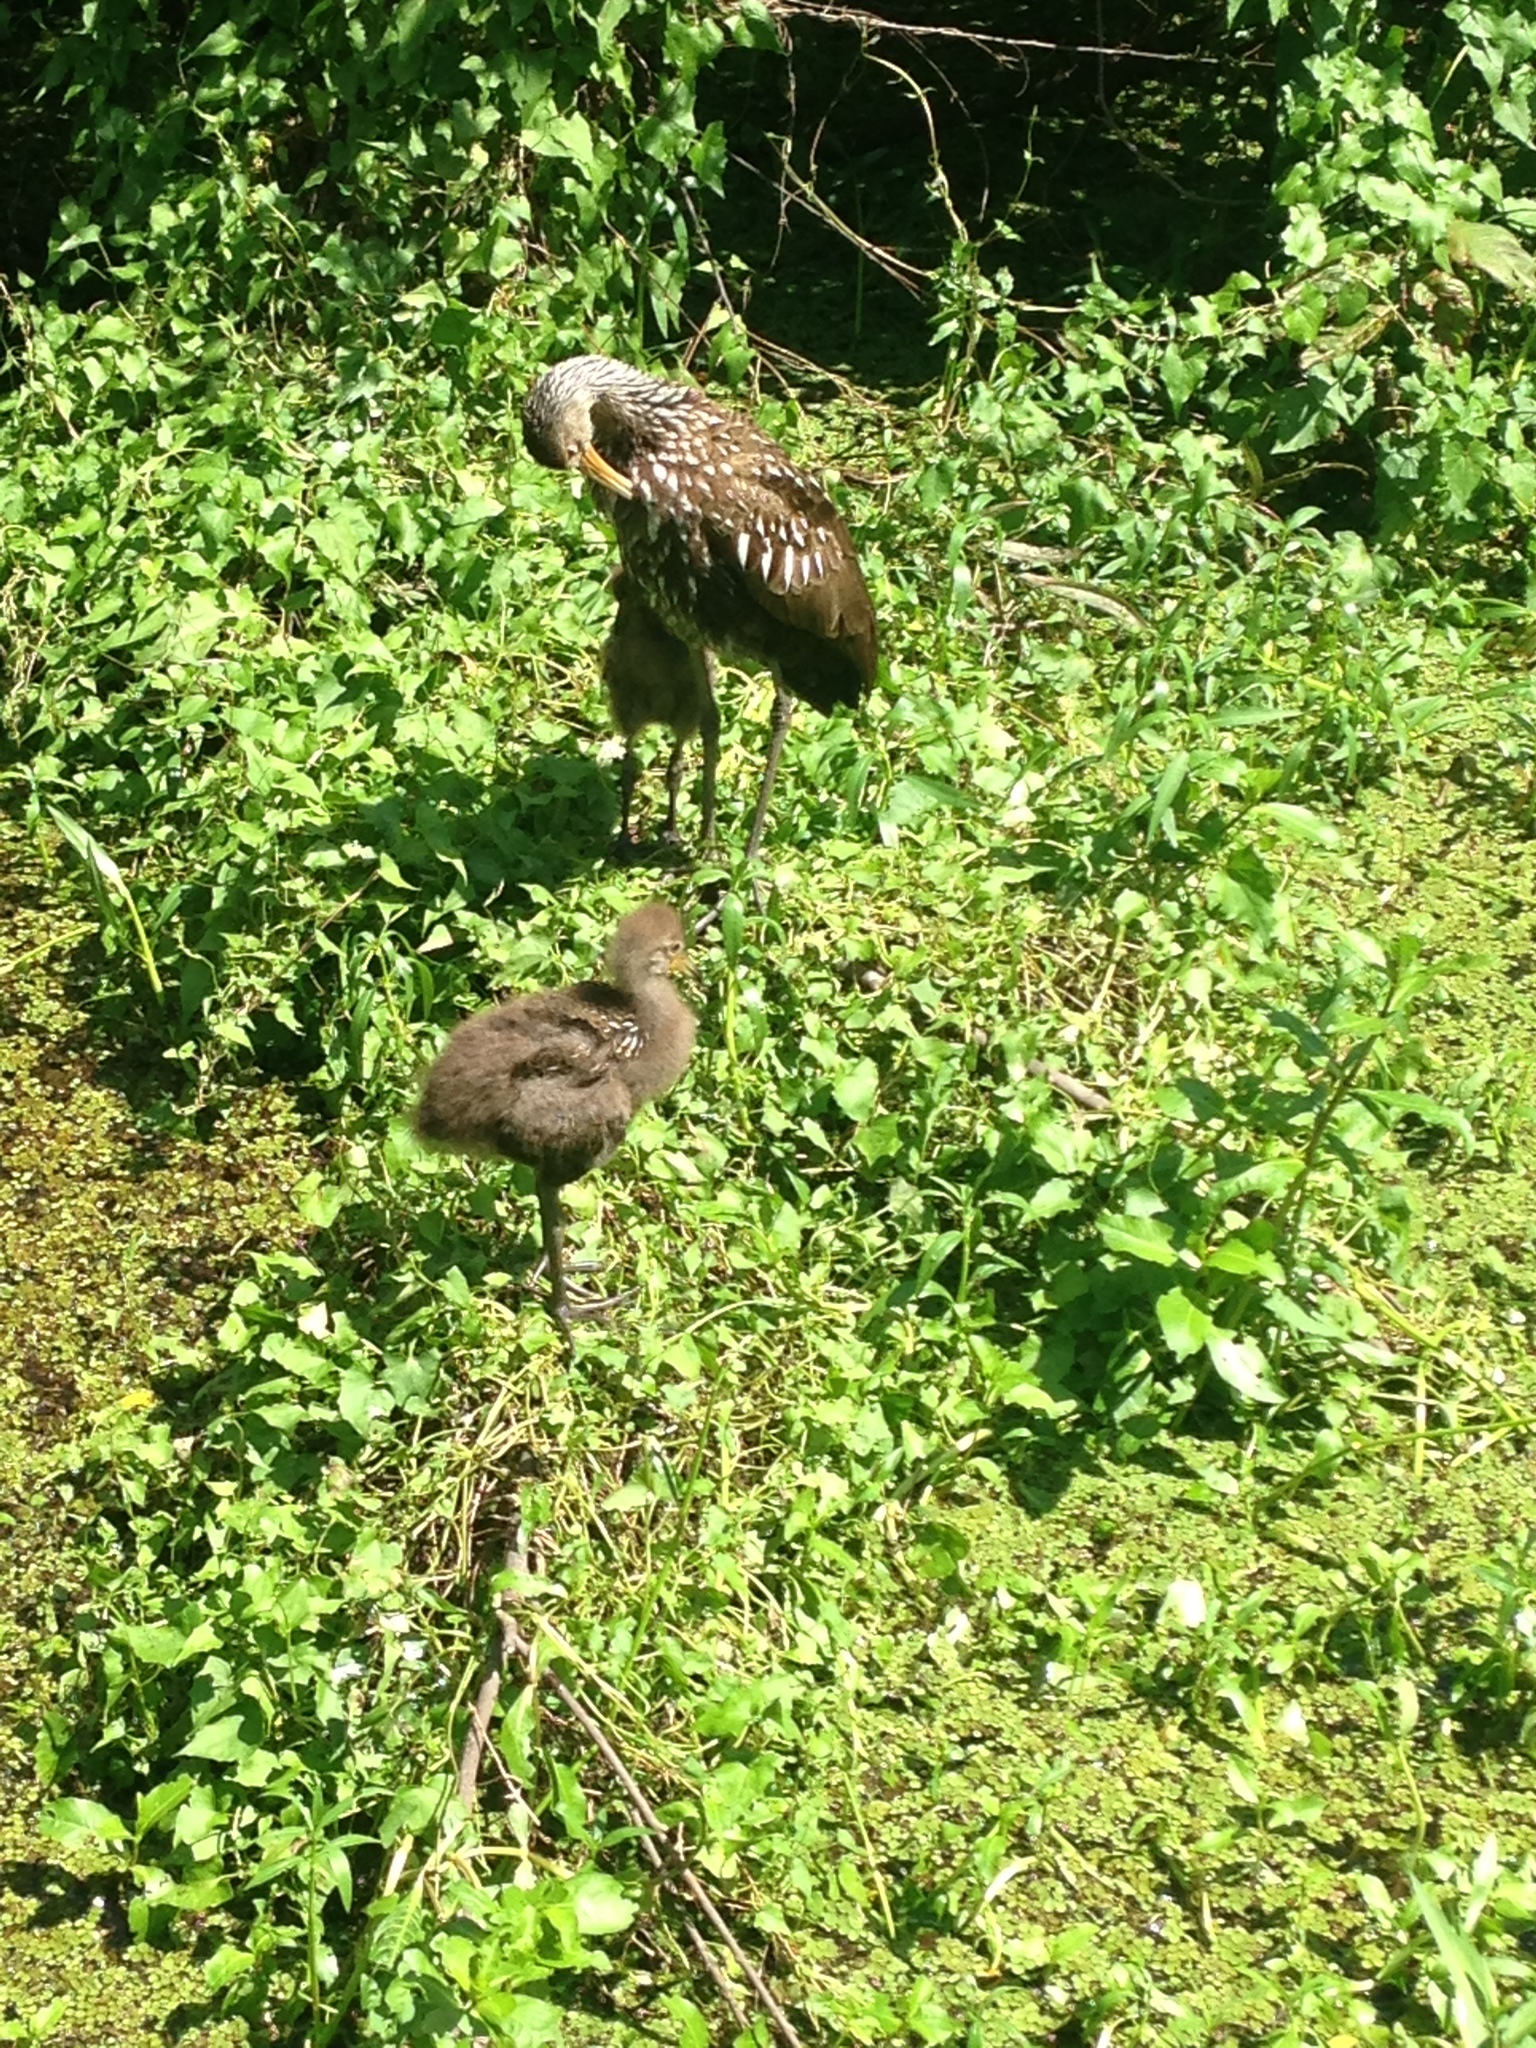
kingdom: Animalia
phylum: Chordata
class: Aves
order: Gruiformes
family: Aramidae
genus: Aramus
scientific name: Aramus guarauna
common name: Limpkin
